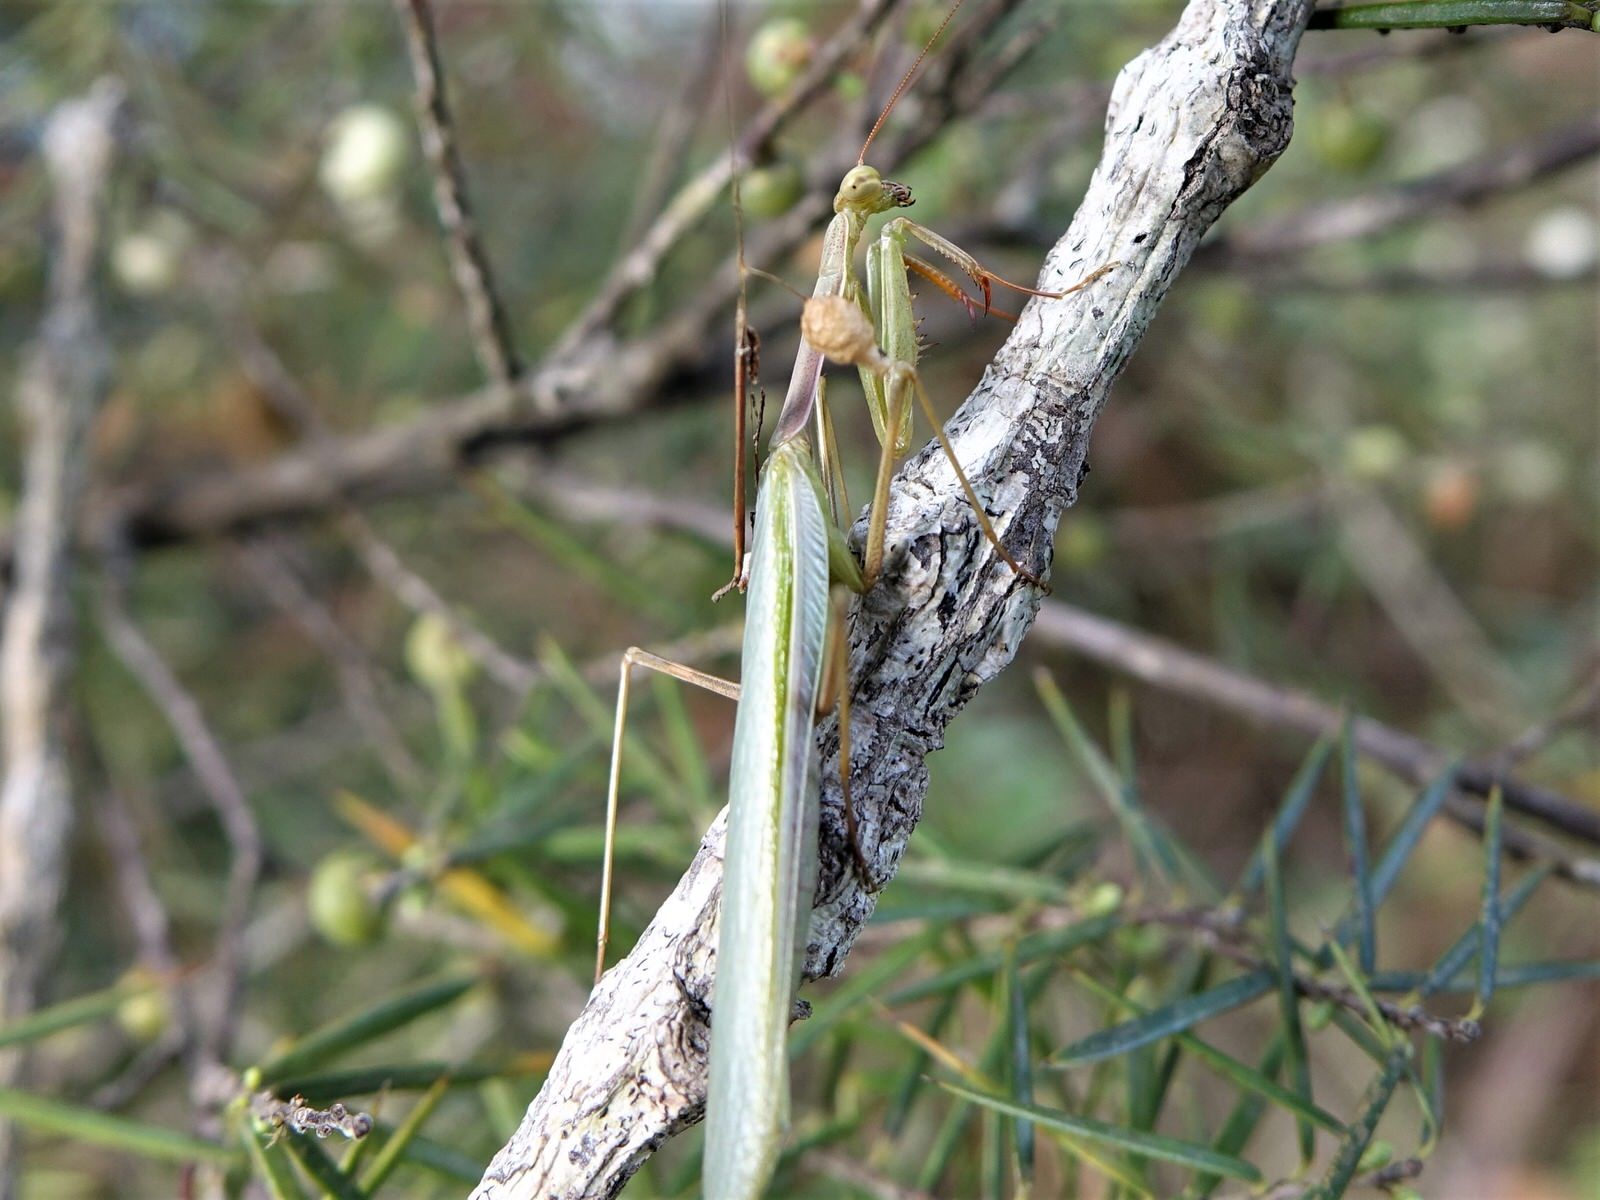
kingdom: Animalia
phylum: Arthropoda
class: Insecta
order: Mantodea
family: Miomantidae
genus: Miomantis
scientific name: Miomantis caffra
